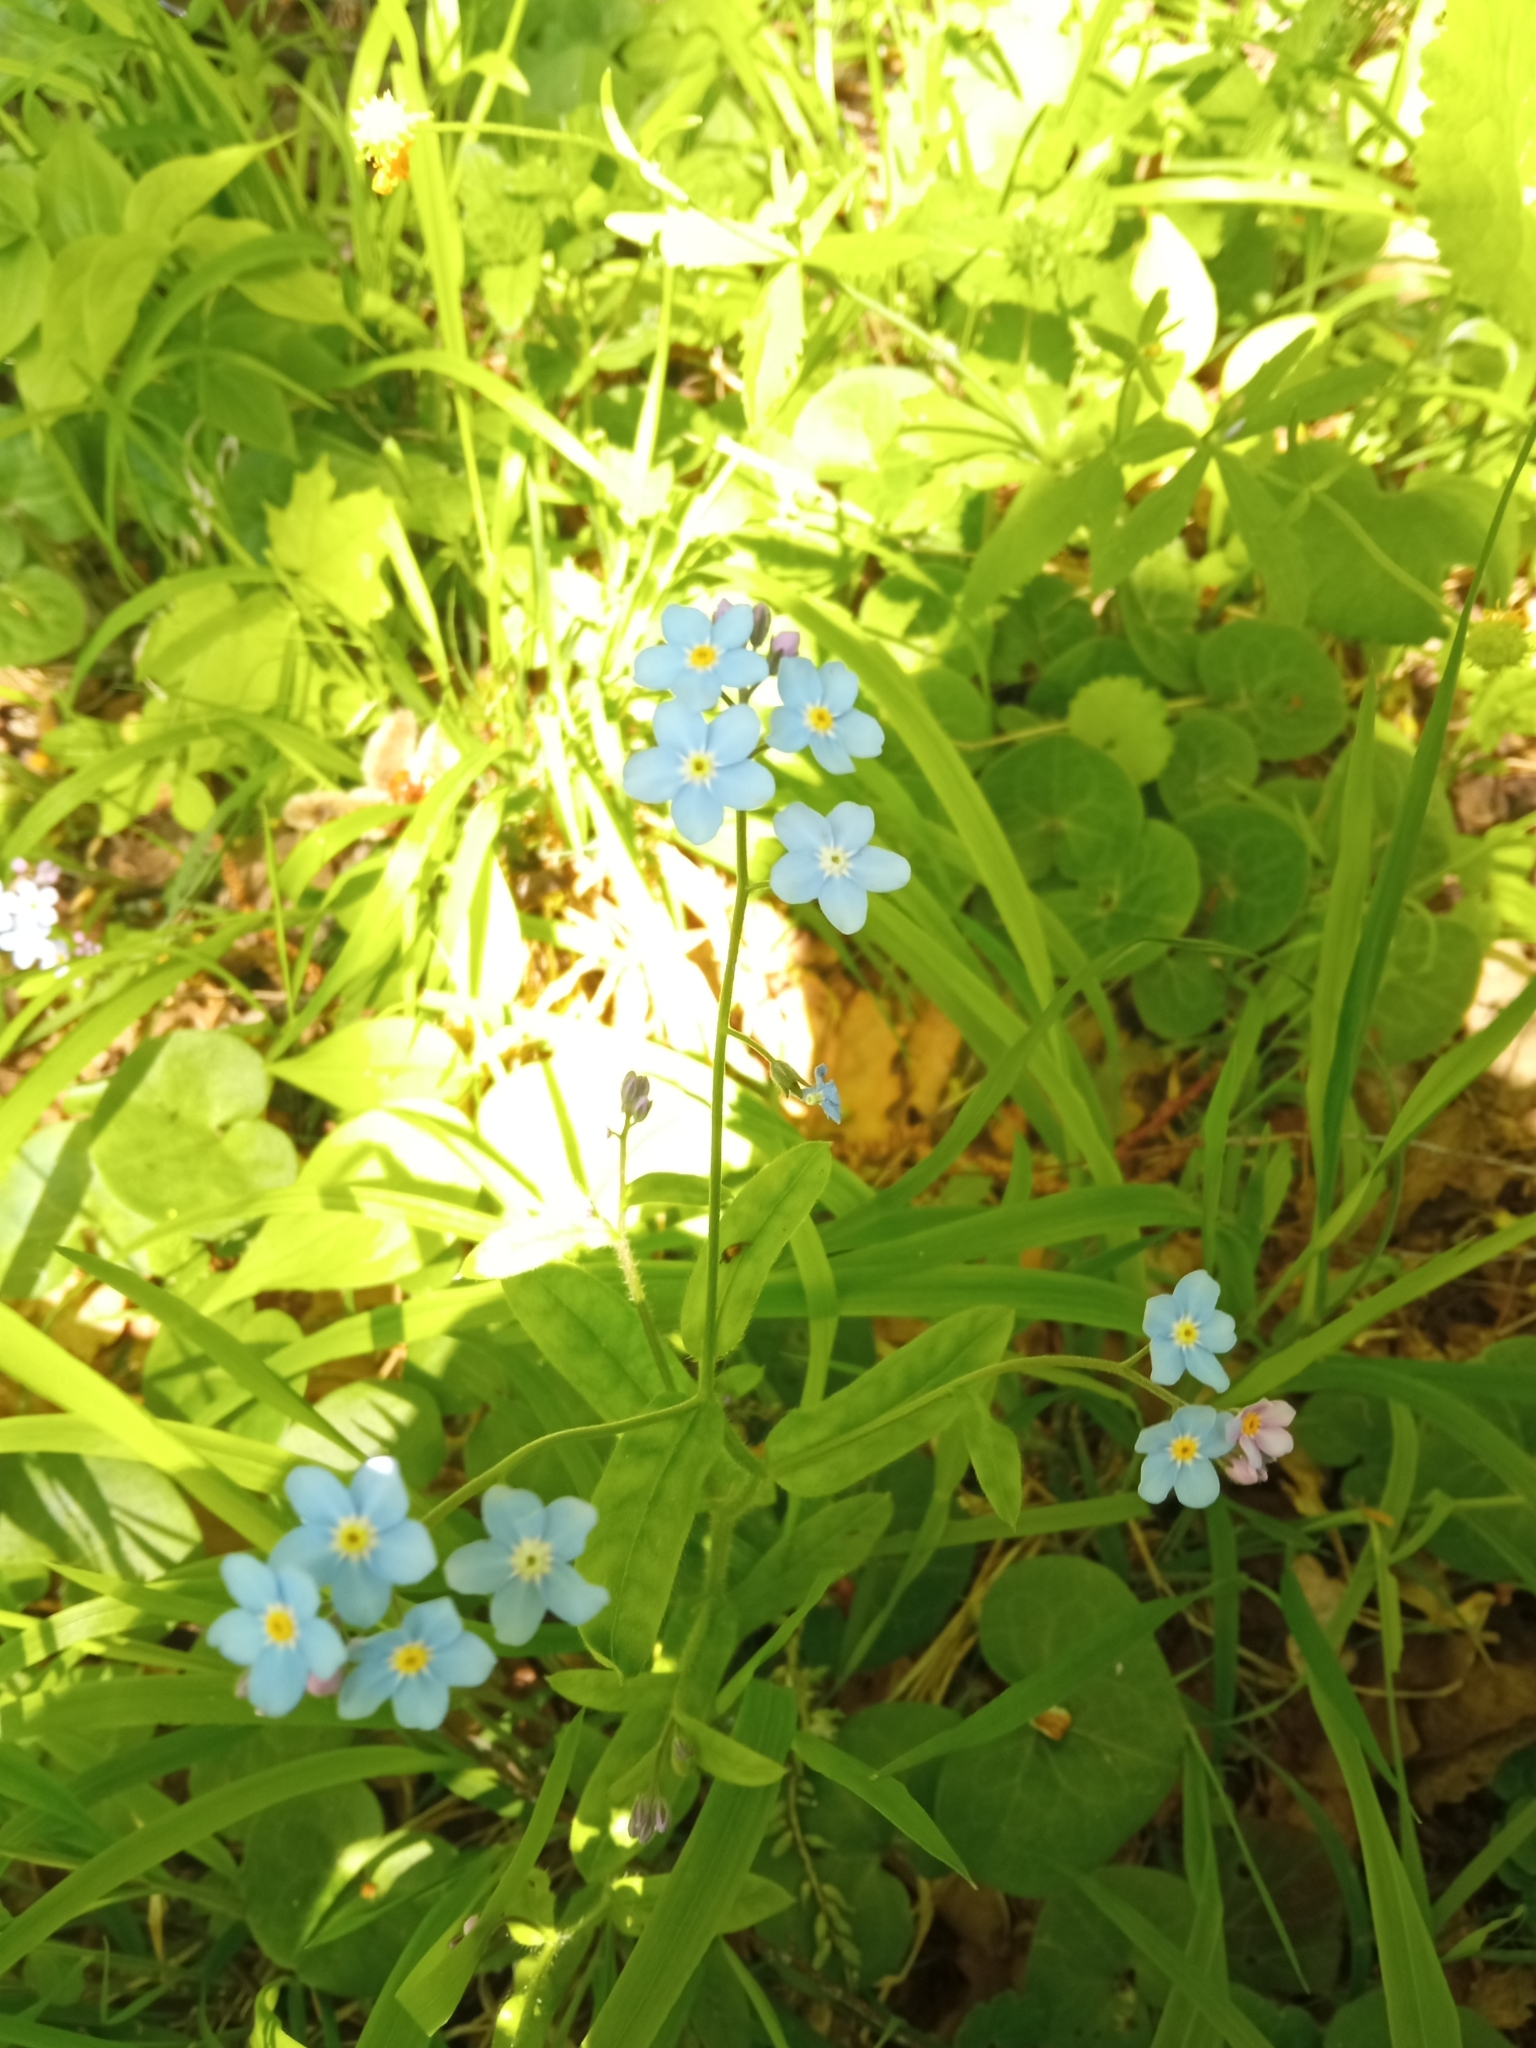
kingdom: Plantae
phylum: Tracheophyta
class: Magnoliopsida
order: Boraginales
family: Boraginaceae
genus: Myosotis
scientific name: Myosotis sylvatica
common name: Wood forget-me-not
